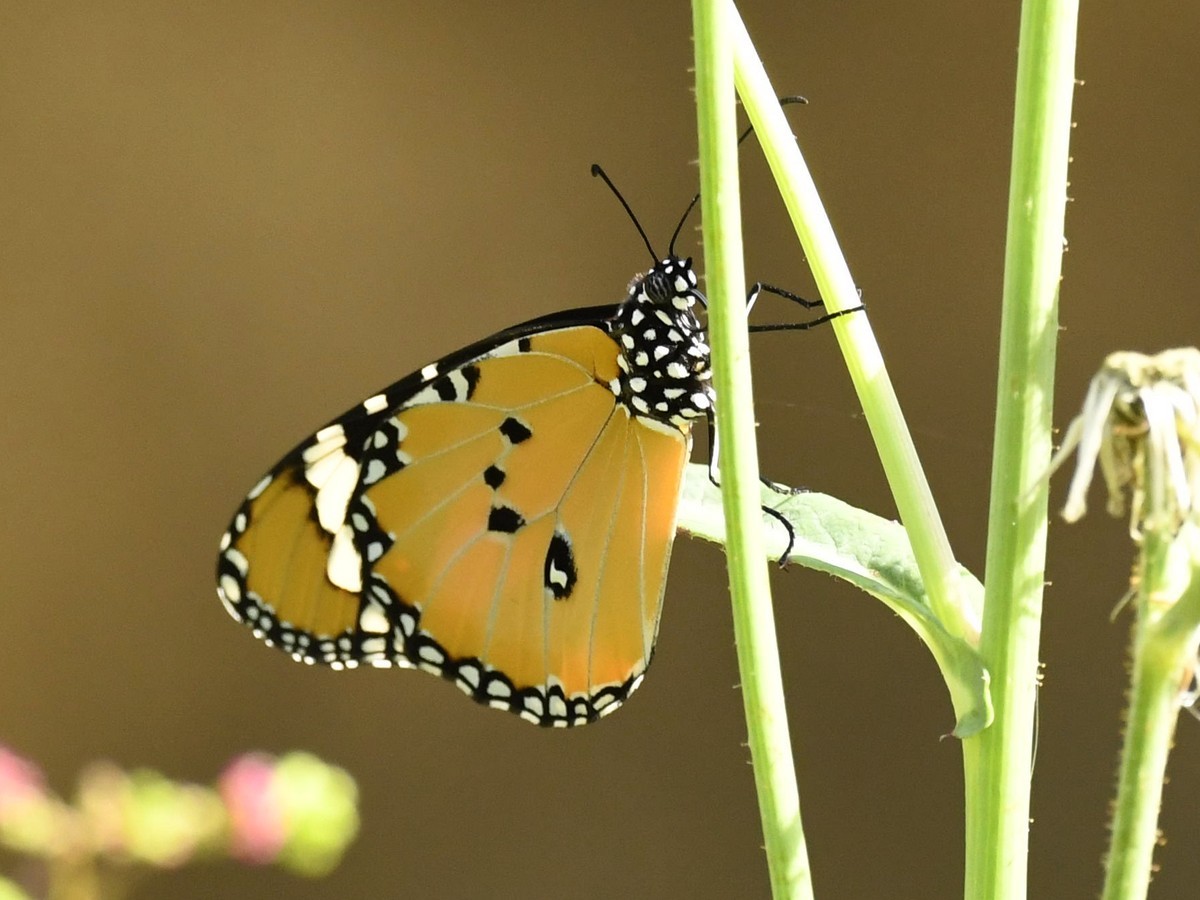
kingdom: Animalia
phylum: Arthropoda
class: Insecta
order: Lepidoptera
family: Nymphalidae
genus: Danaus
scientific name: Danaus chrysippus
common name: Plain tiger
